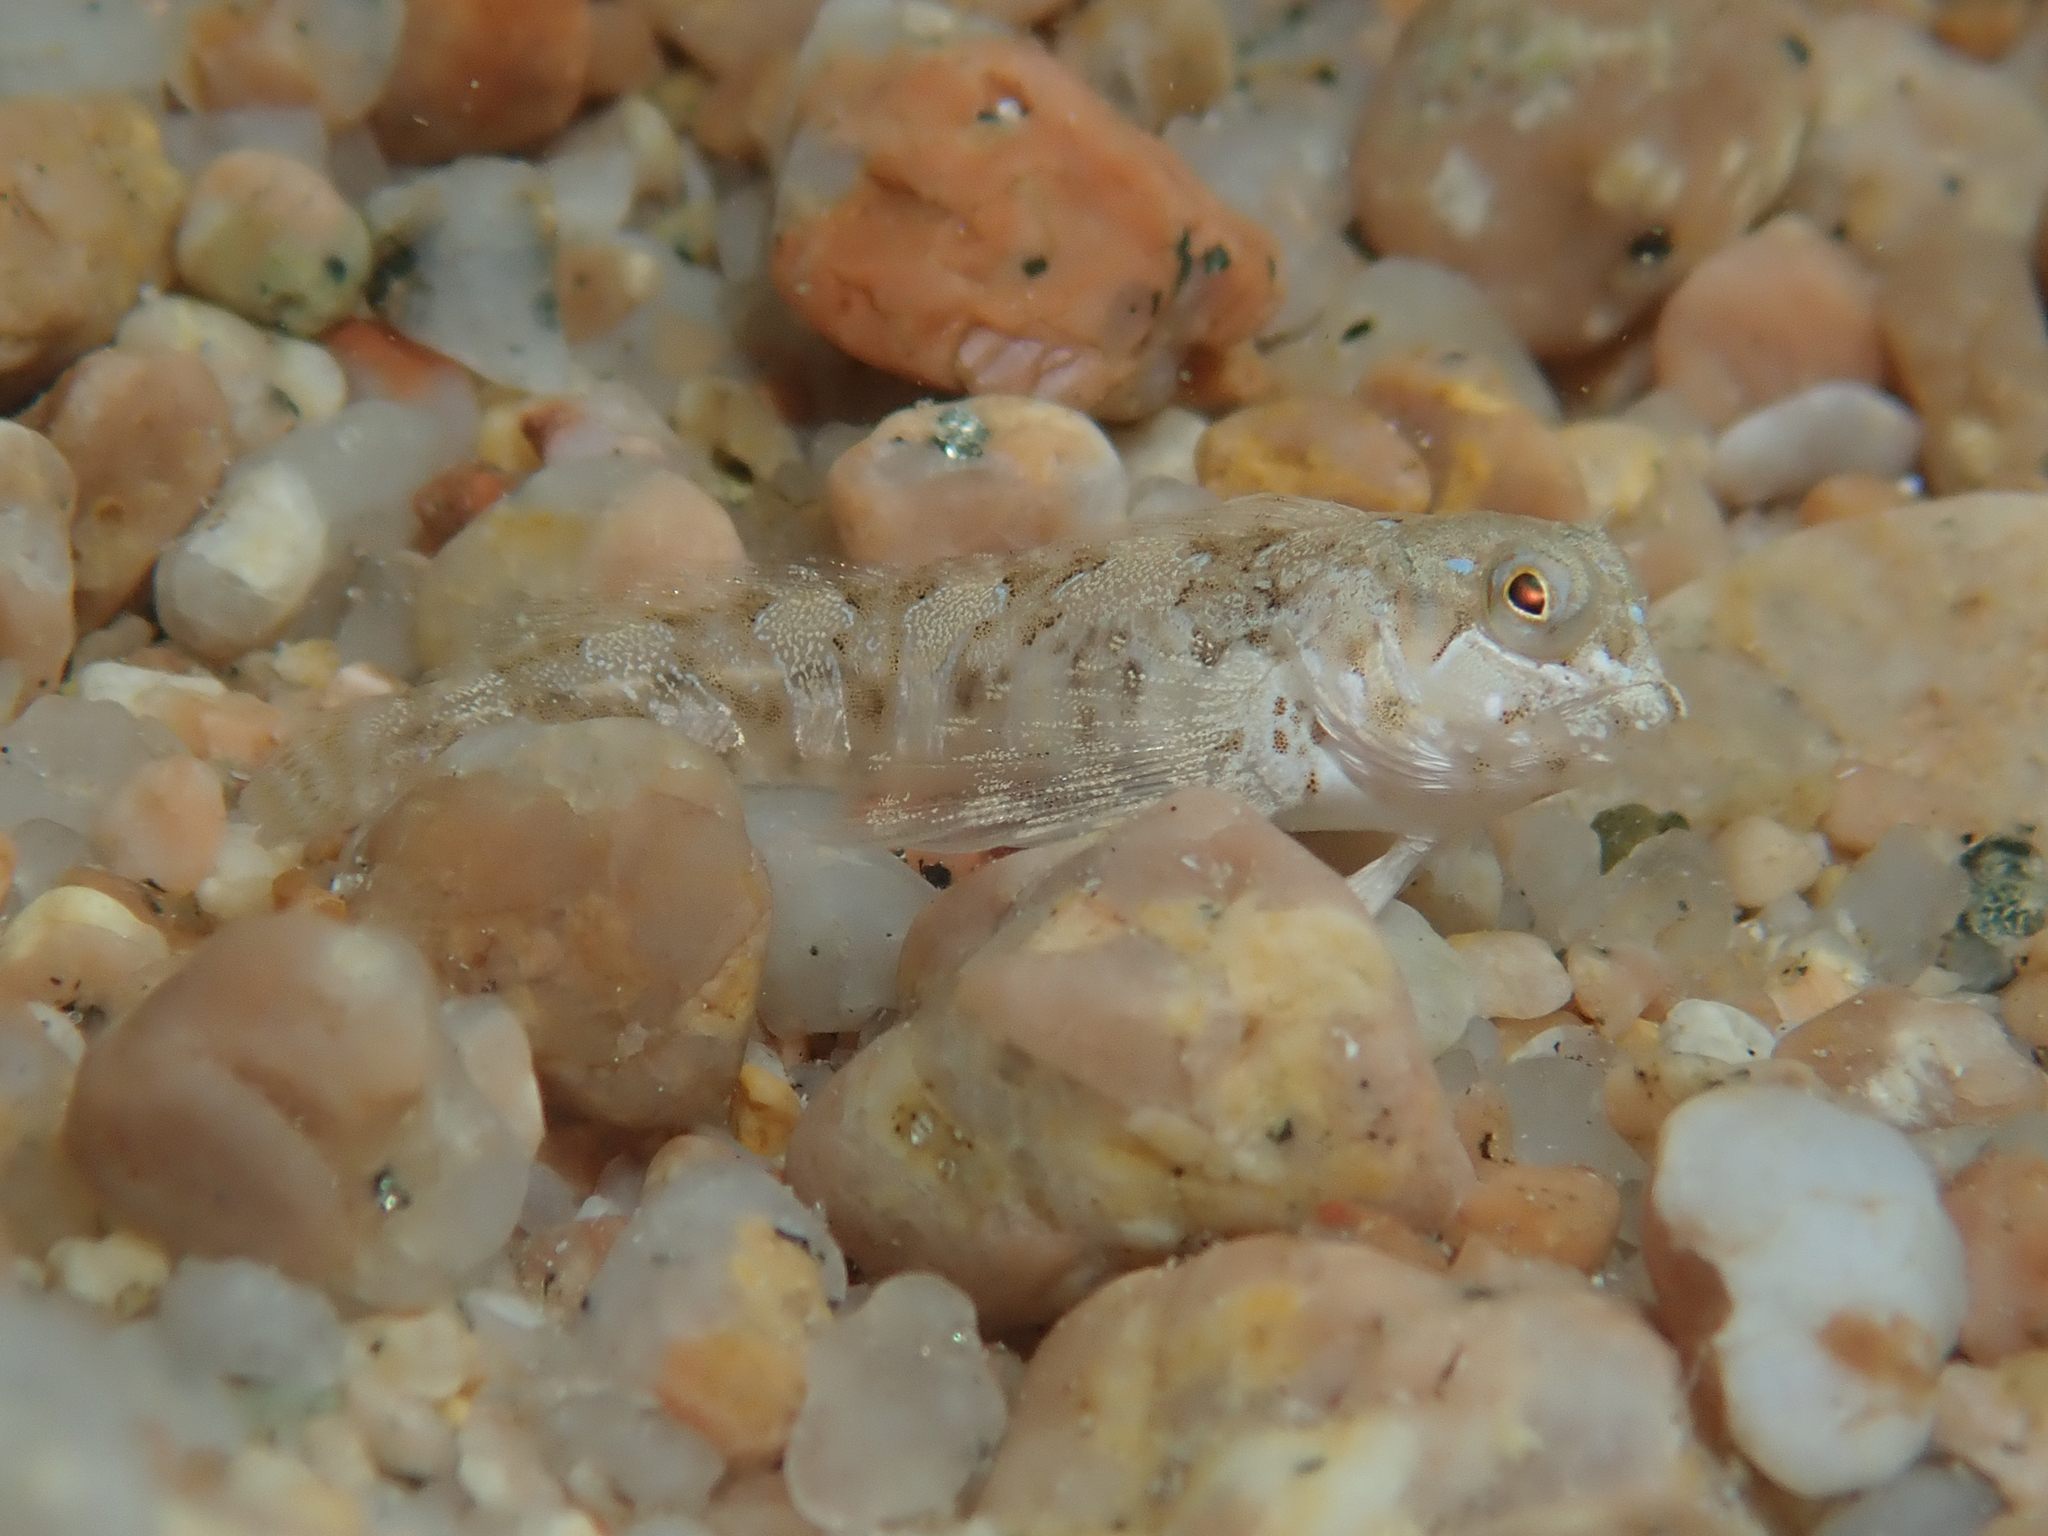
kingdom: Animalia
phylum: Chordata
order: Perciformes
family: Blenniidae
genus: Aidablennius
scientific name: Aidablennius sphynx
